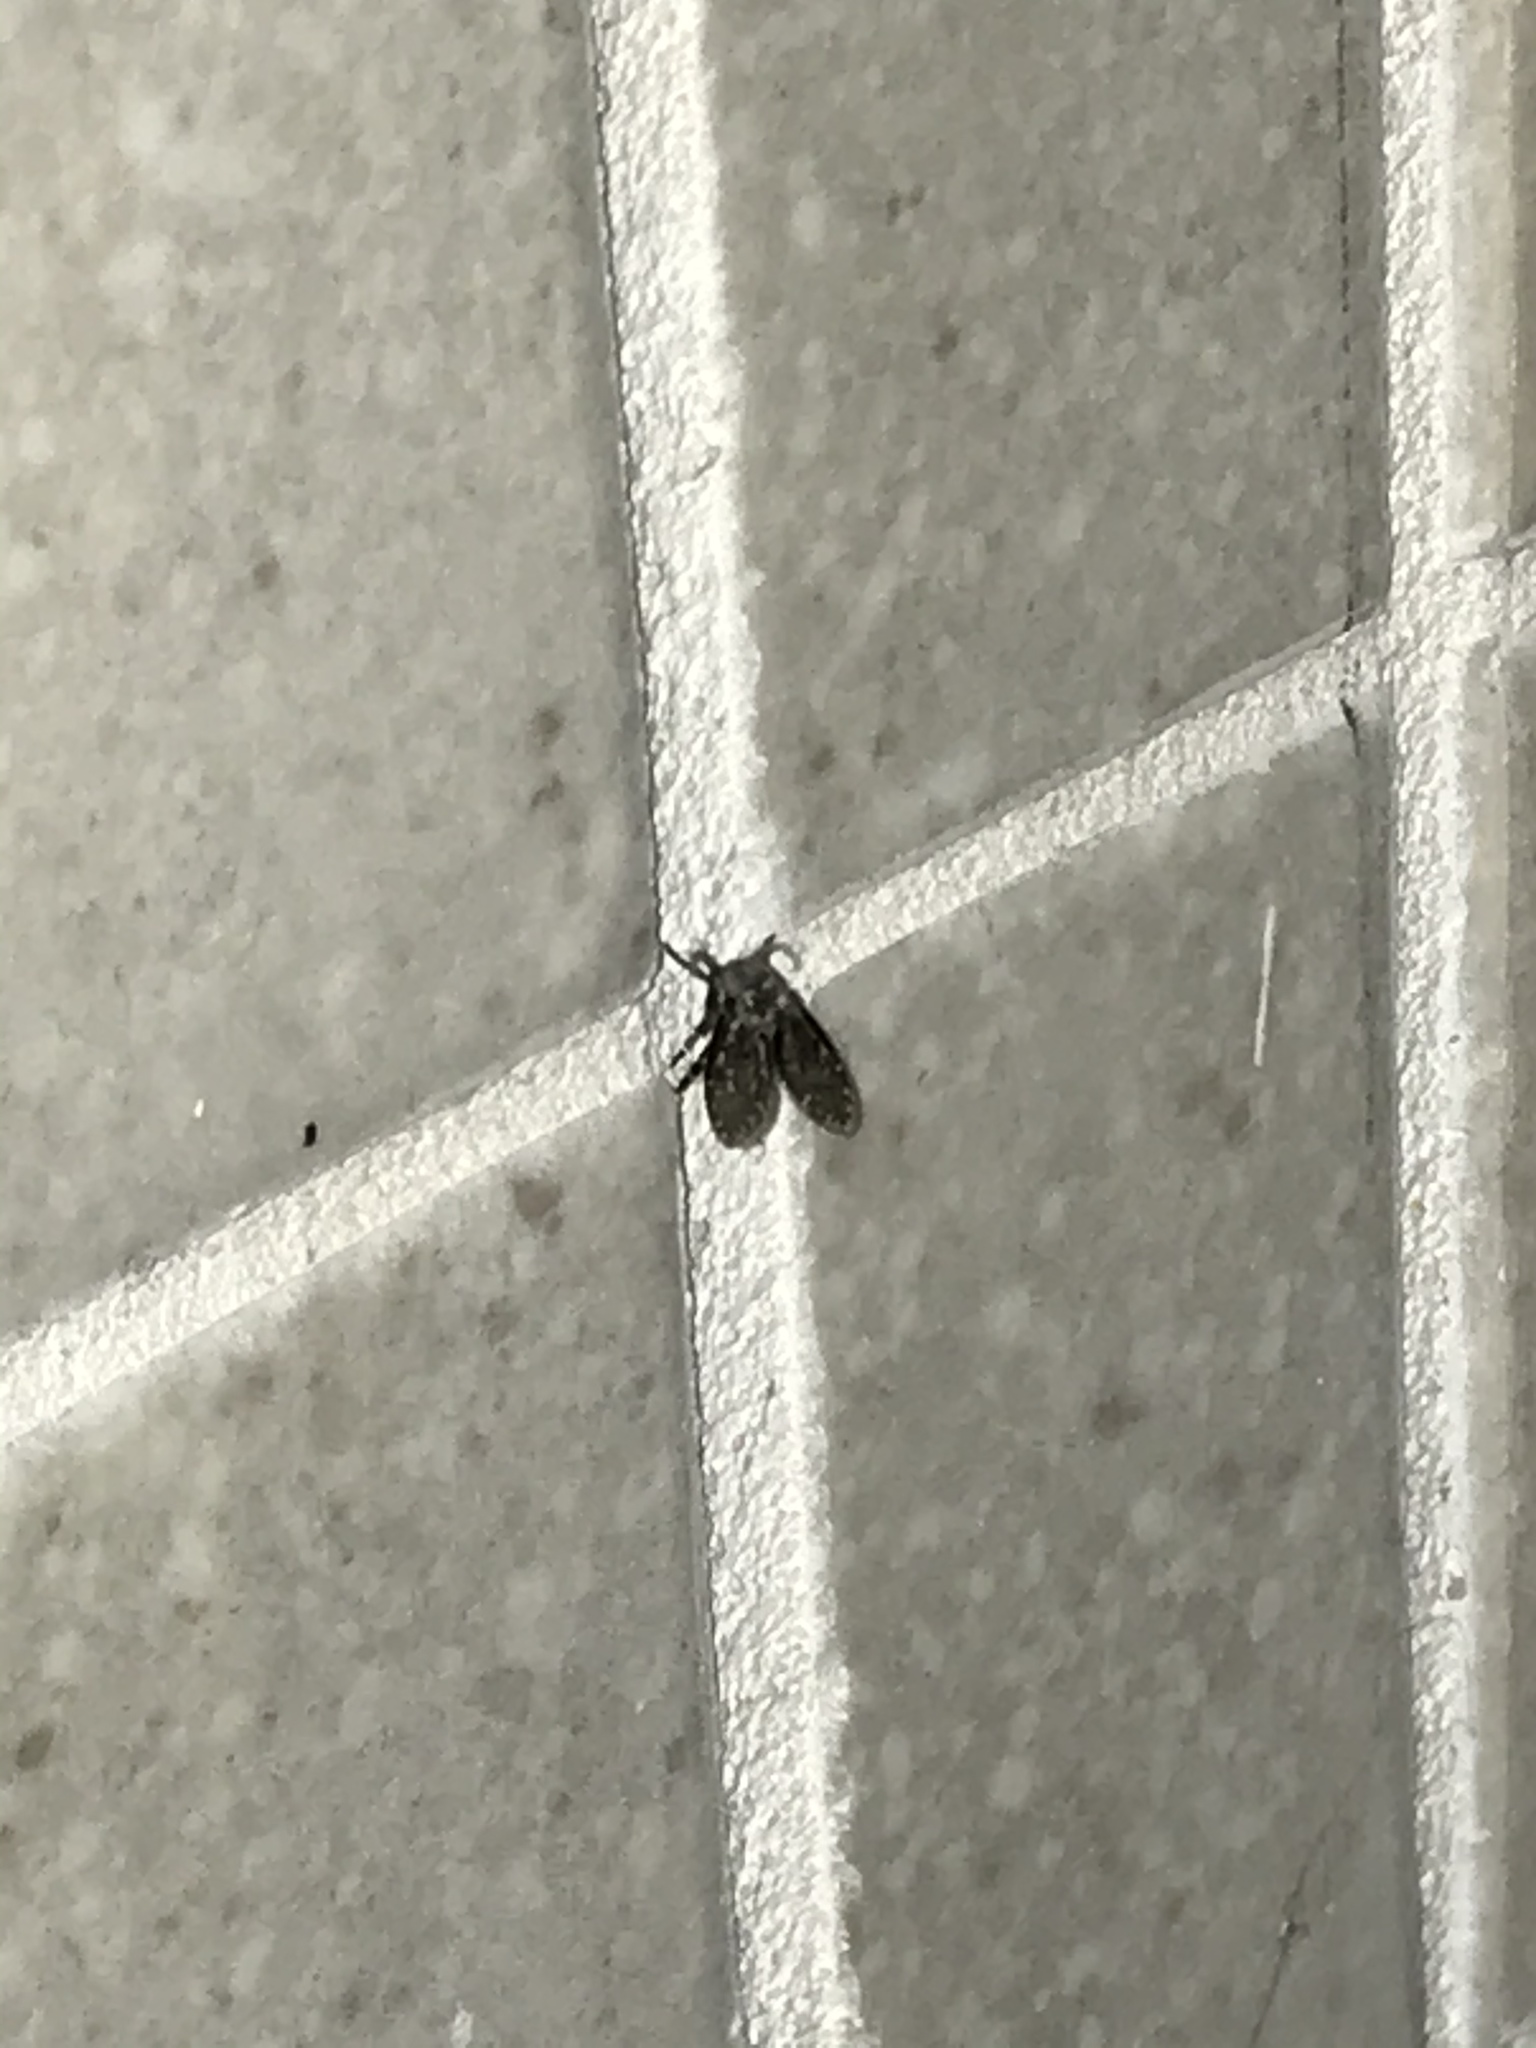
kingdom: Animalia
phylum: Arthropoda
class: Insecta
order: Diptera
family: Psychodidae
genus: Clogmia
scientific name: Clogmia albipunctatus
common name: White-spotted moth fly
